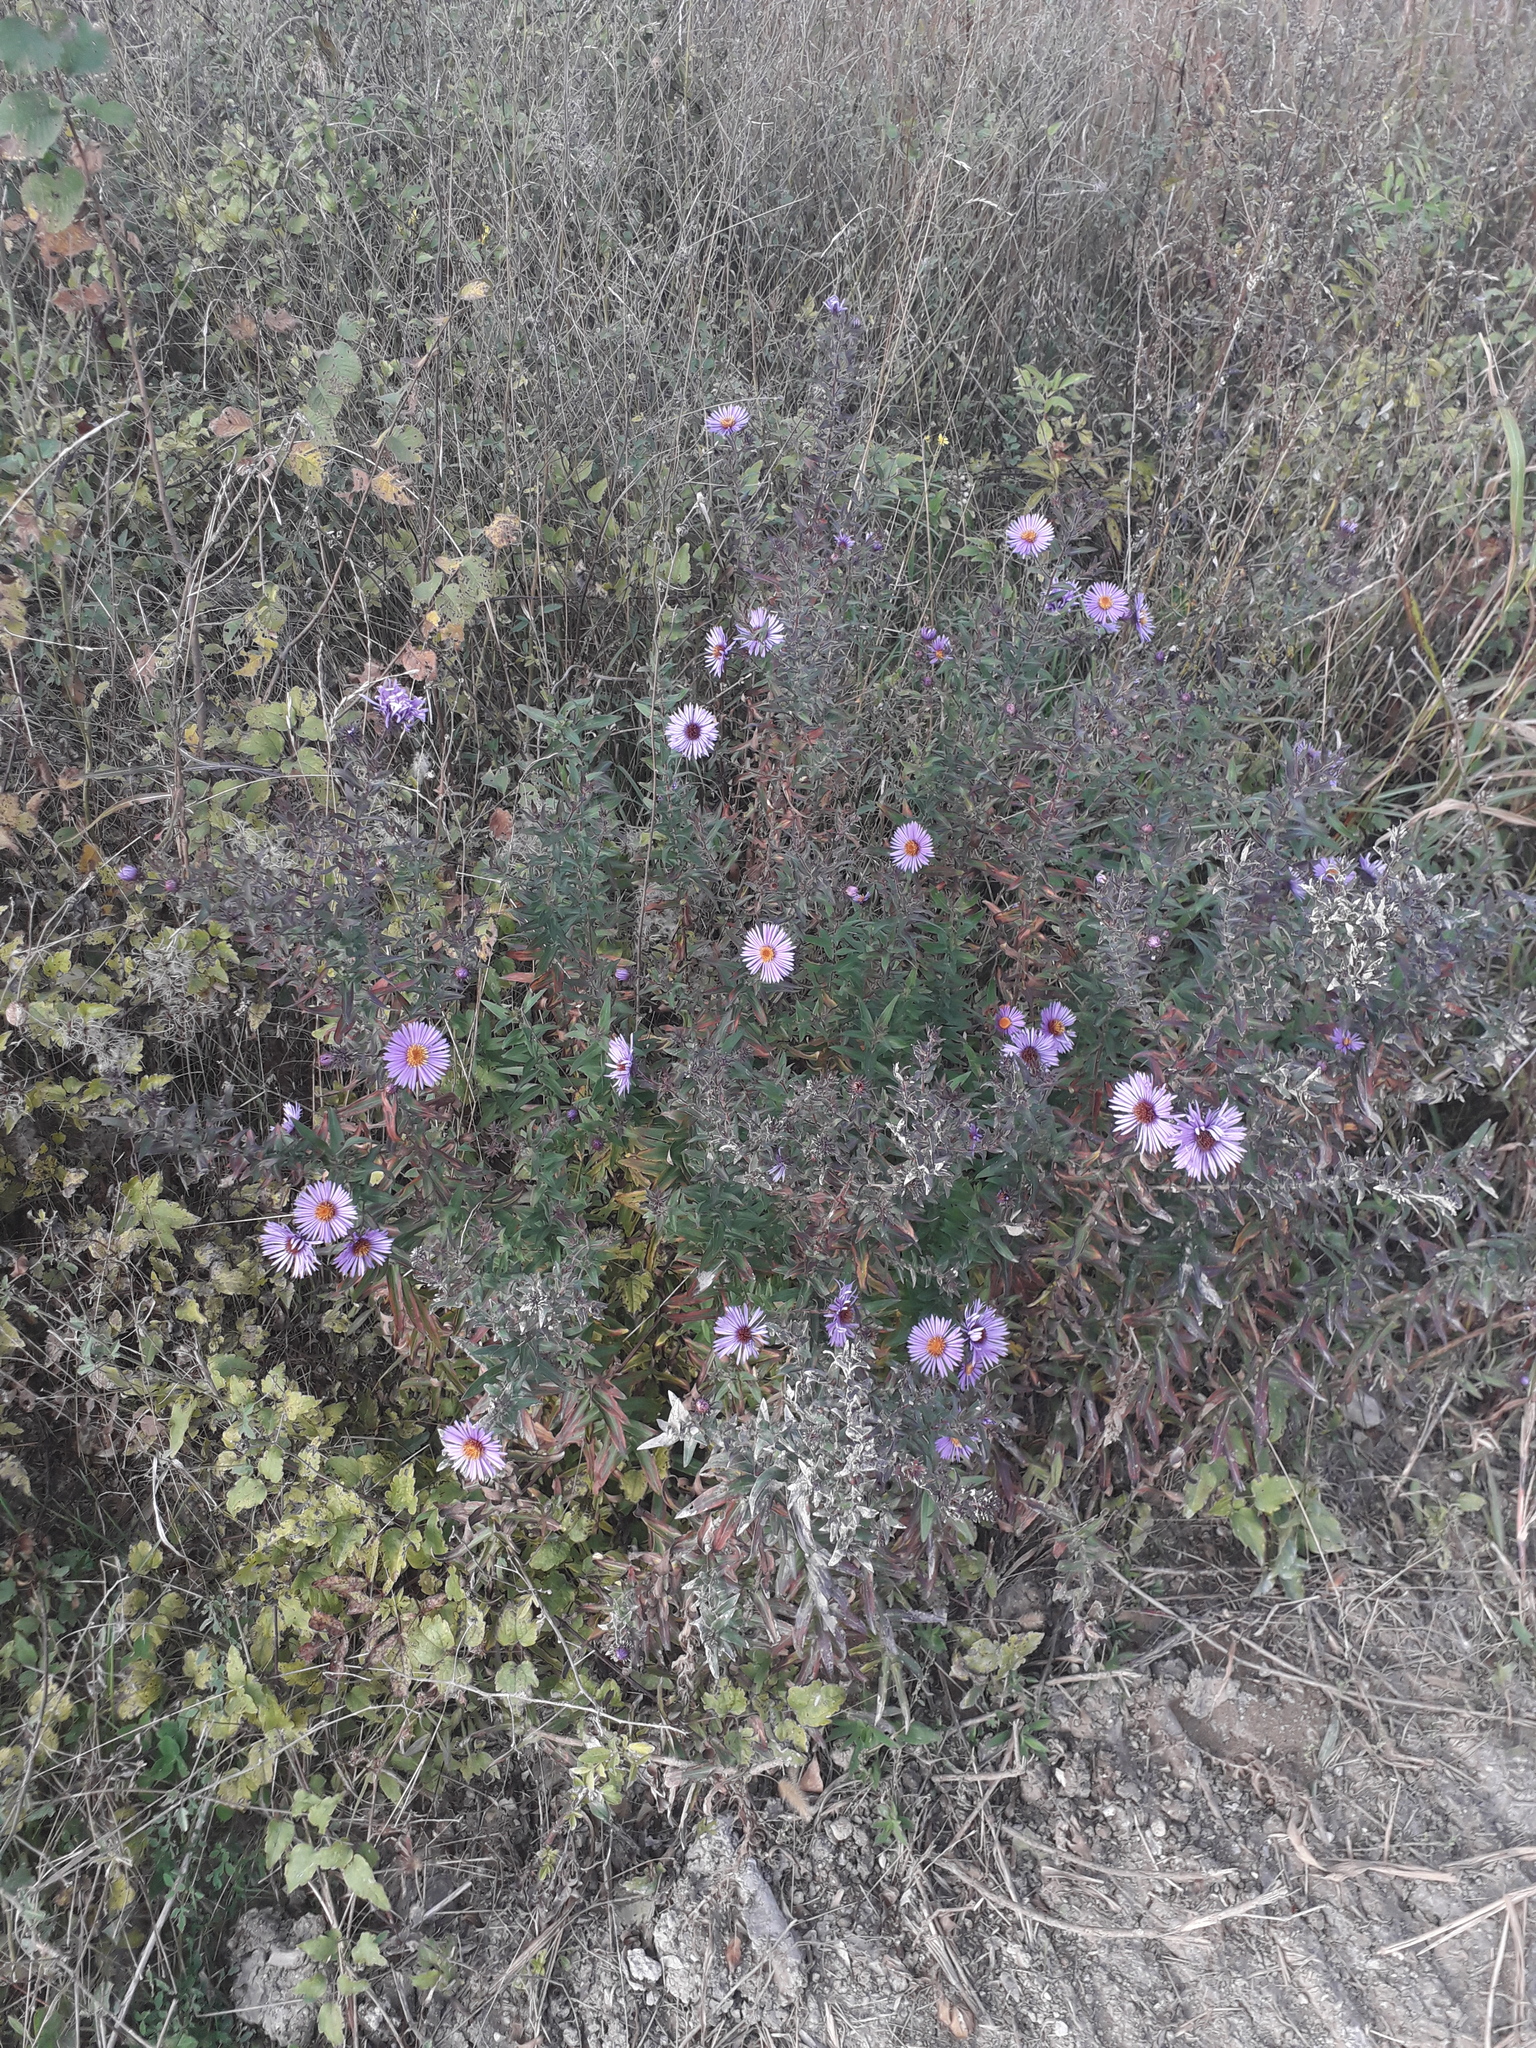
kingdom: Plantae
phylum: Tracheophyta
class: Magnoliopsida
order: Asterales
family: Asteraceae
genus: Symphyotrichum
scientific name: Symphyotrichum novae-angliae
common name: Michaelmas daisy
